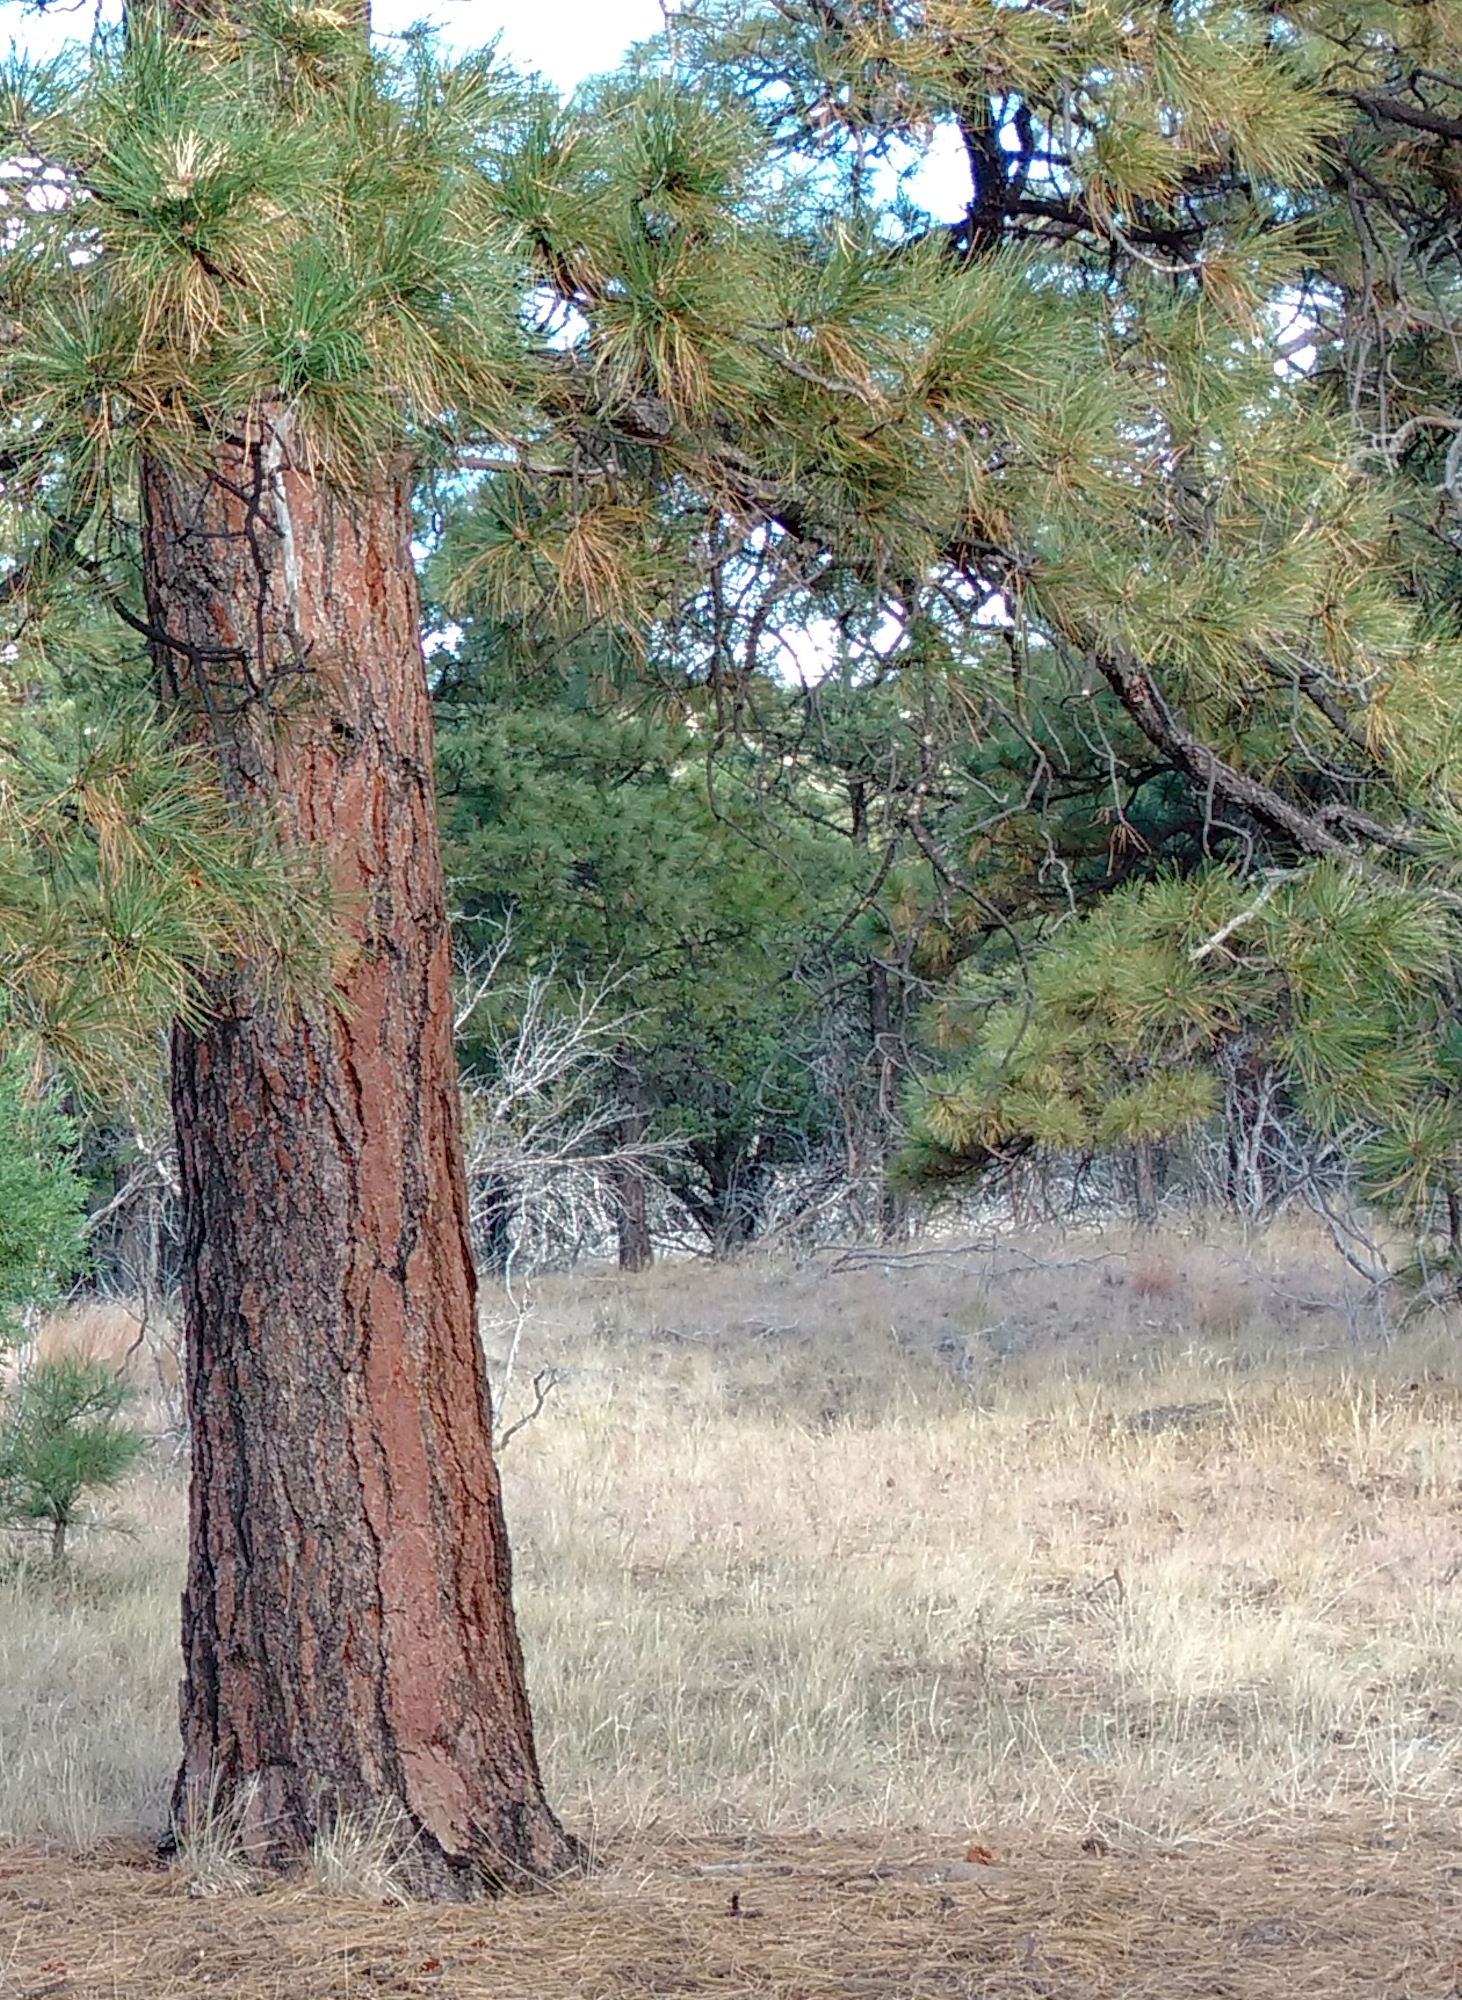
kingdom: Plantae
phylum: Tracheophyta
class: Pinopsida
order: Pinales
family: Pinaceae
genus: Pinus
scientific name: Pinus ponderosa
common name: Western yellow-pine
